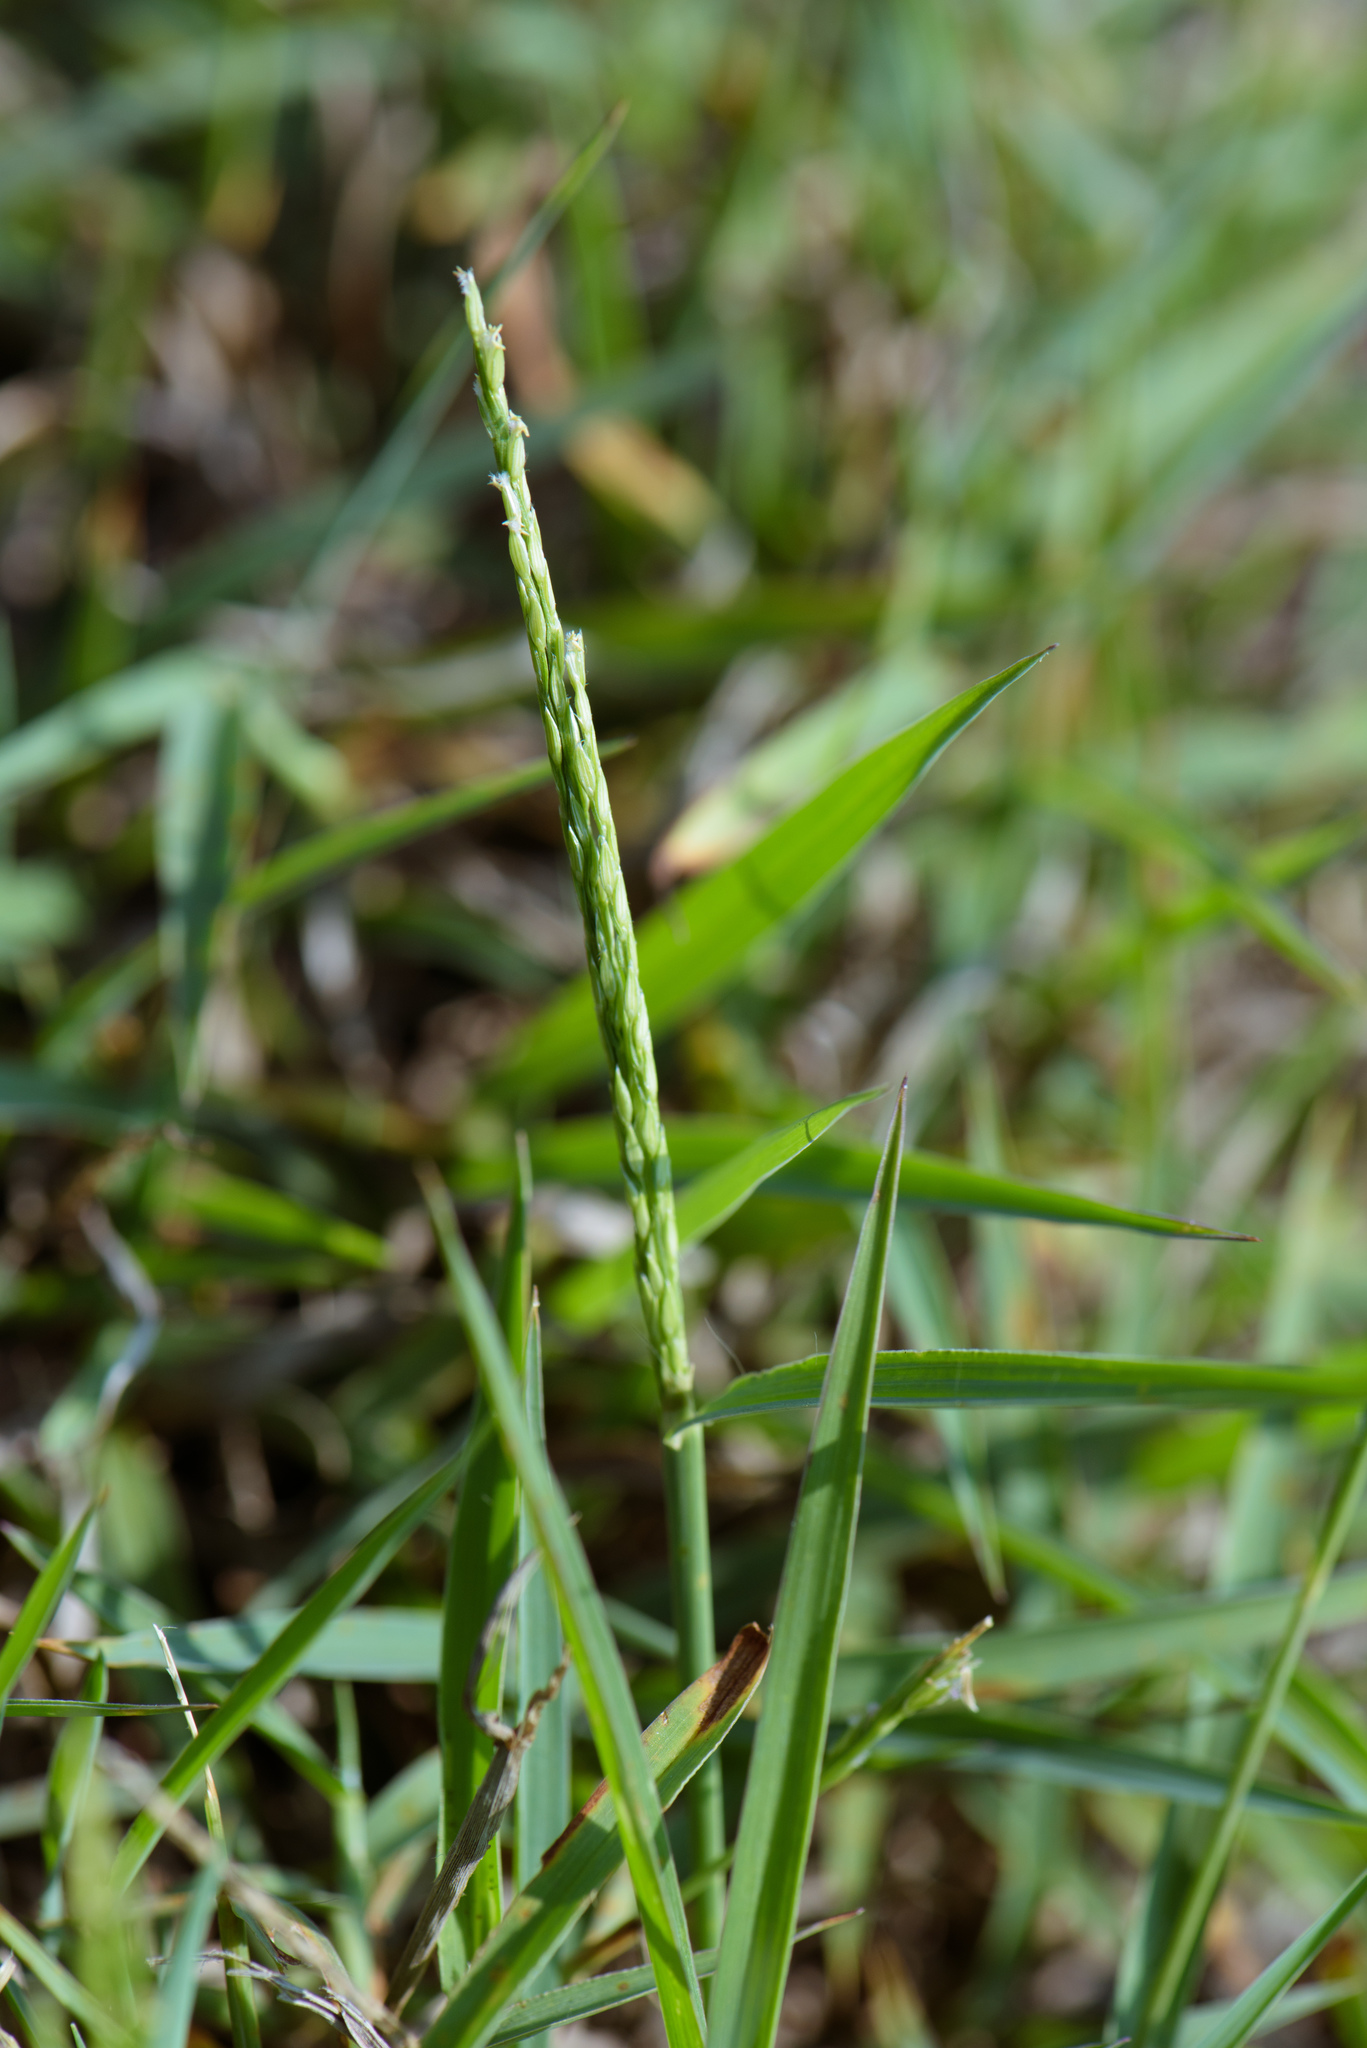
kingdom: Plantae
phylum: Tracheophyta
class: Liliopsida
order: Poales
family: Poaceae
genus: Digitaria
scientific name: Digitaria ciliaris
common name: Tropical finger-grass
